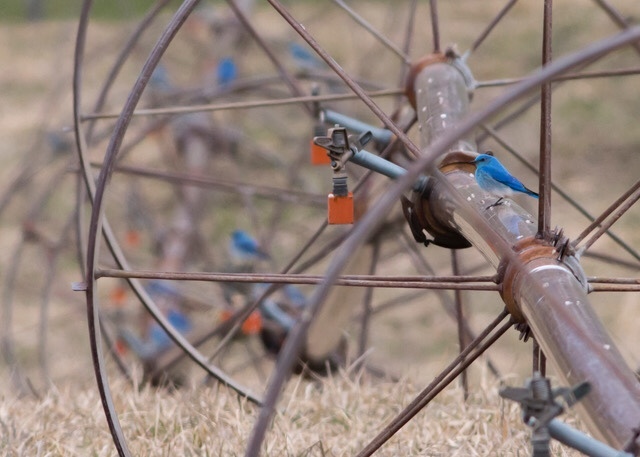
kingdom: Animalia
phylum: Chordata
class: Aves
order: Passeriformes
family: Turdidae
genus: Sialia
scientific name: Sialia currucoides
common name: Mountain bluebird
